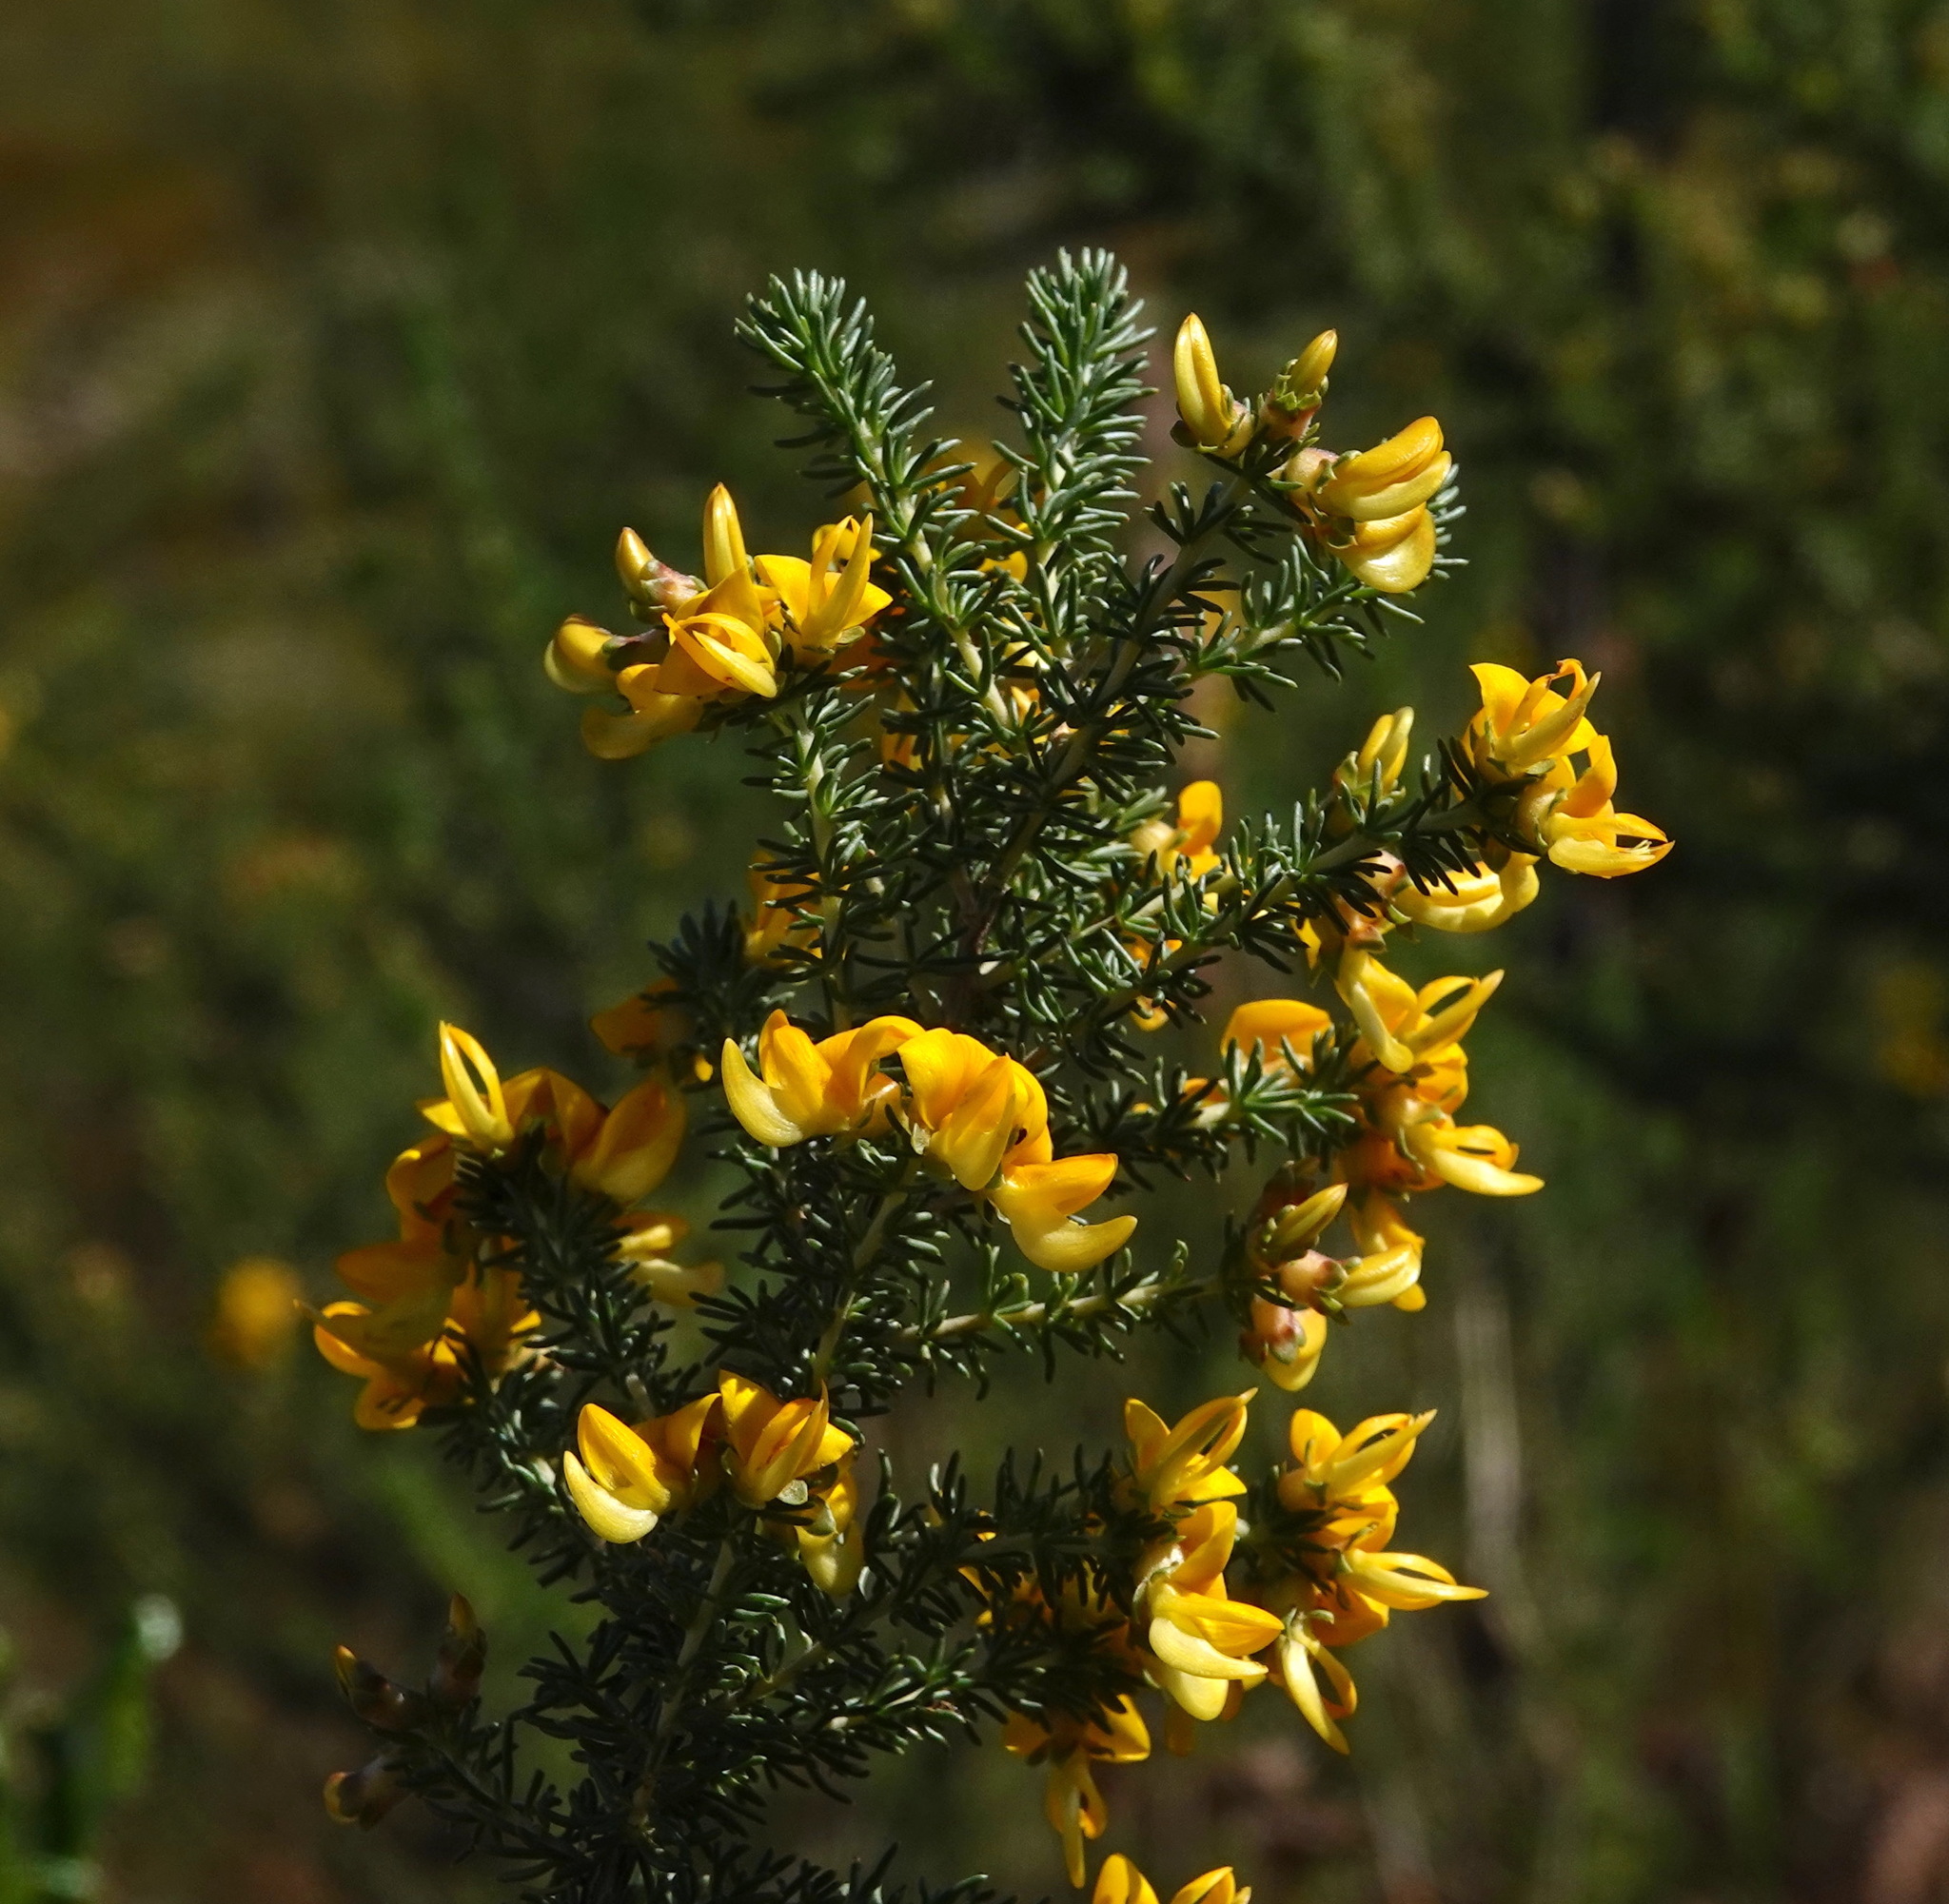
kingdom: Plantae
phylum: Tracheophyta
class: Magnoliopsida
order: Fabales
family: Fabaceae
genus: Aspalathus
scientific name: Aspalathus carnosa
